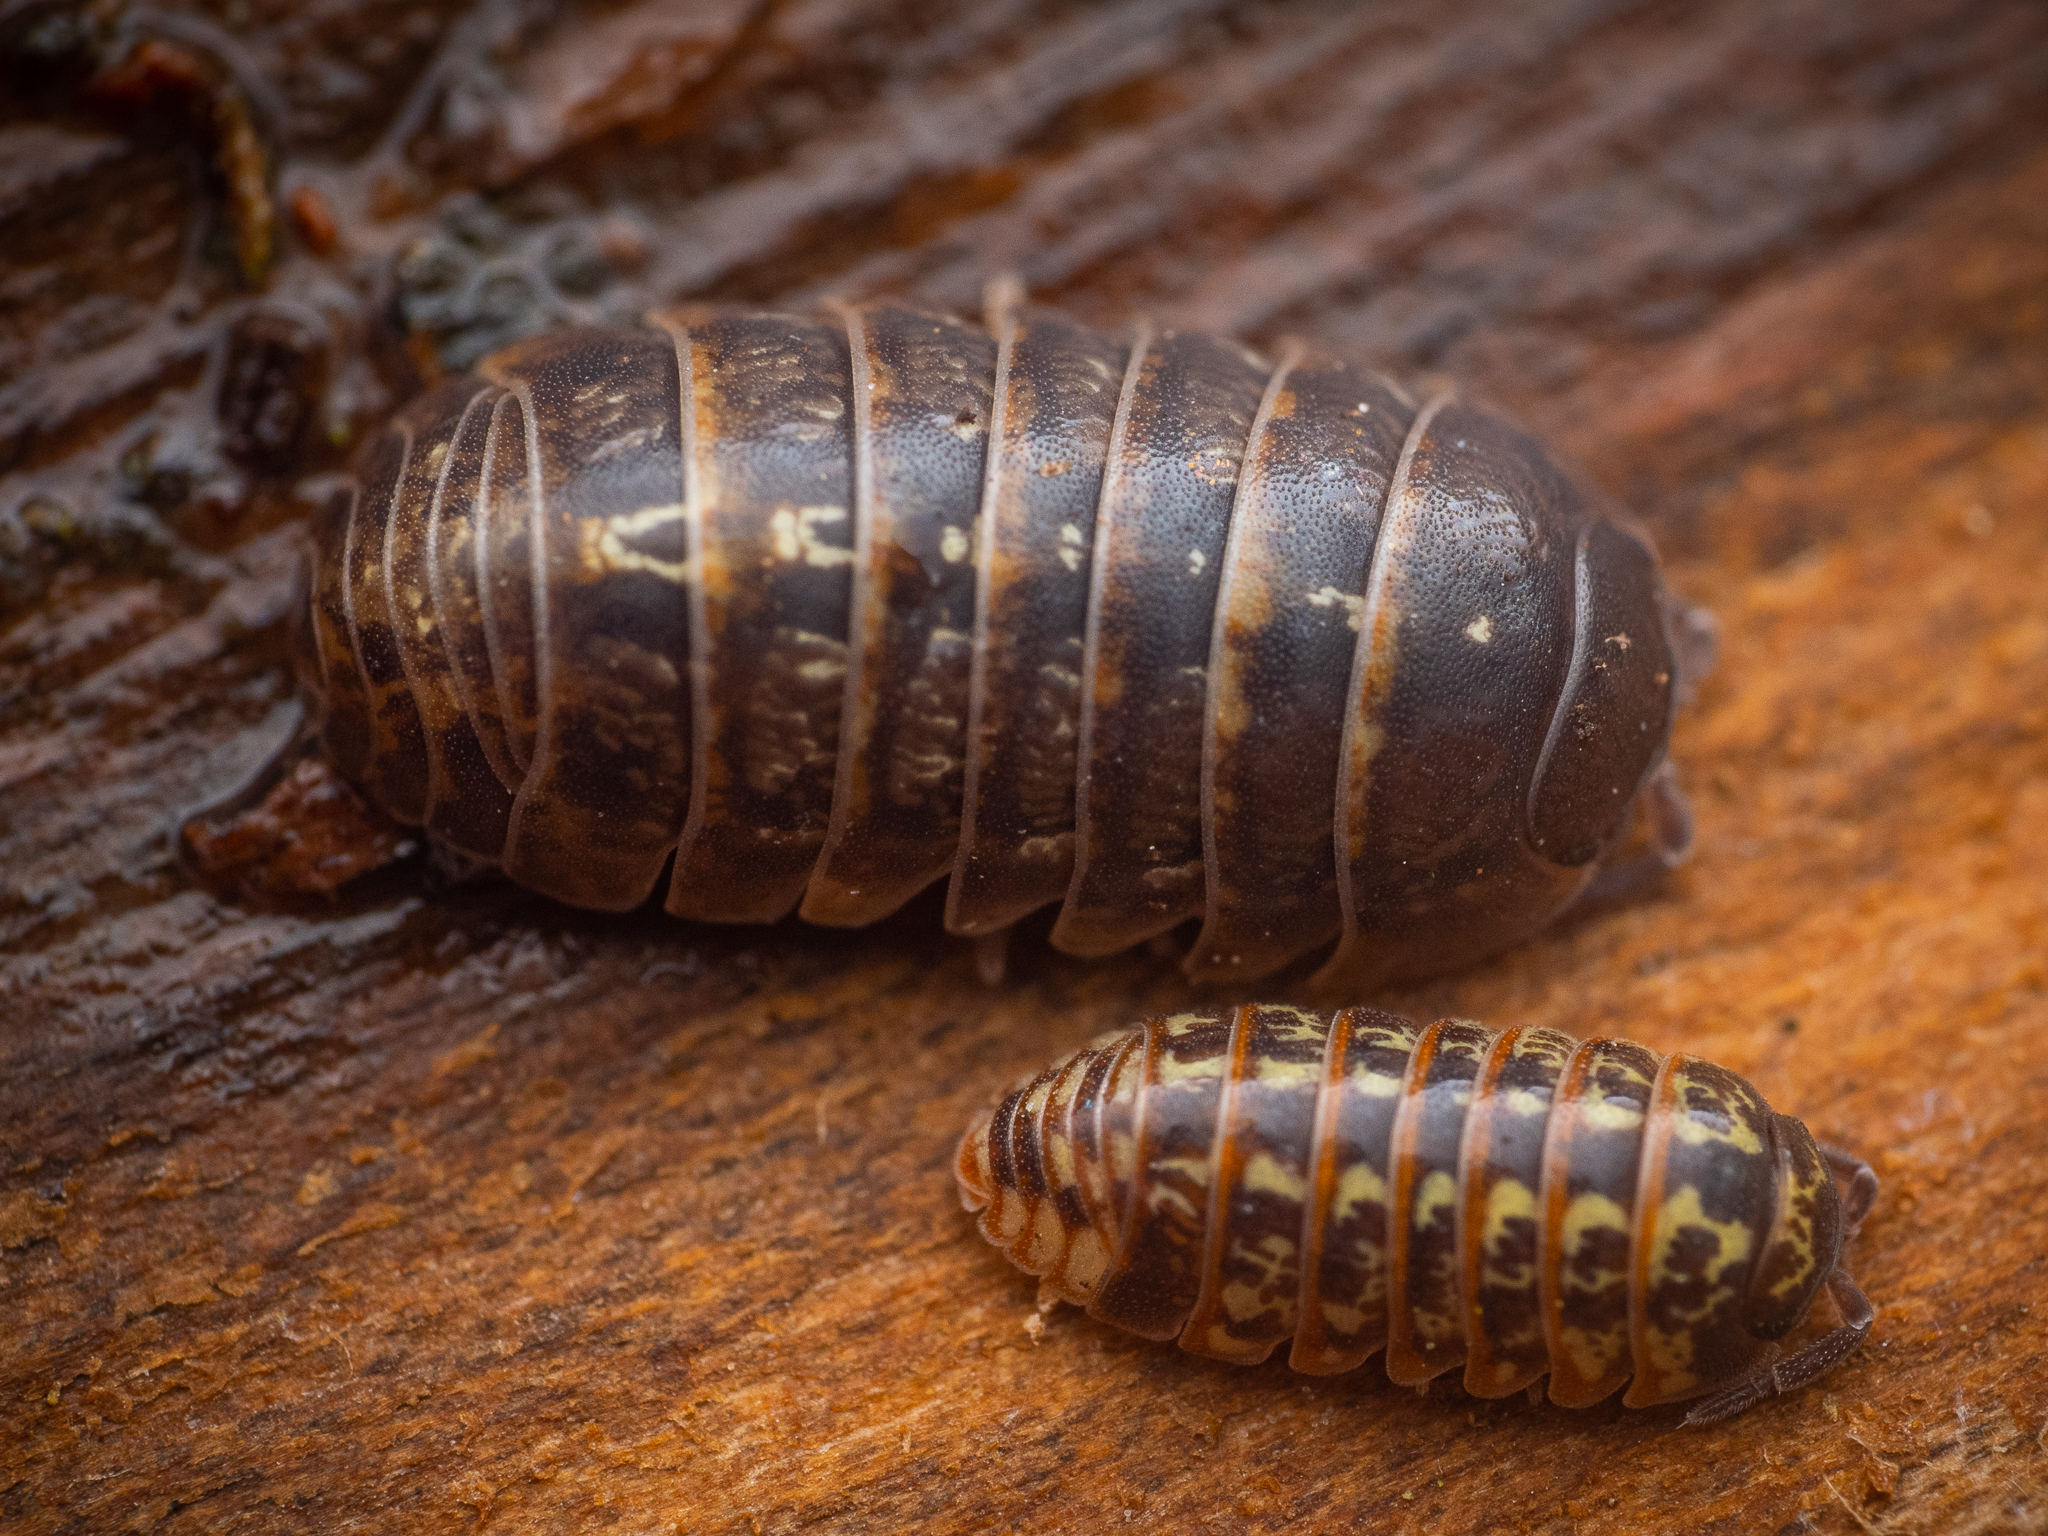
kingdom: Animalia
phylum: Arthropoda
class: Malacostraca
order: Isopoda
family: Armadillidiidae
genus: Armadillidium
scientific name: Armadillidium vulgare
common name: Common pill woodlouse
